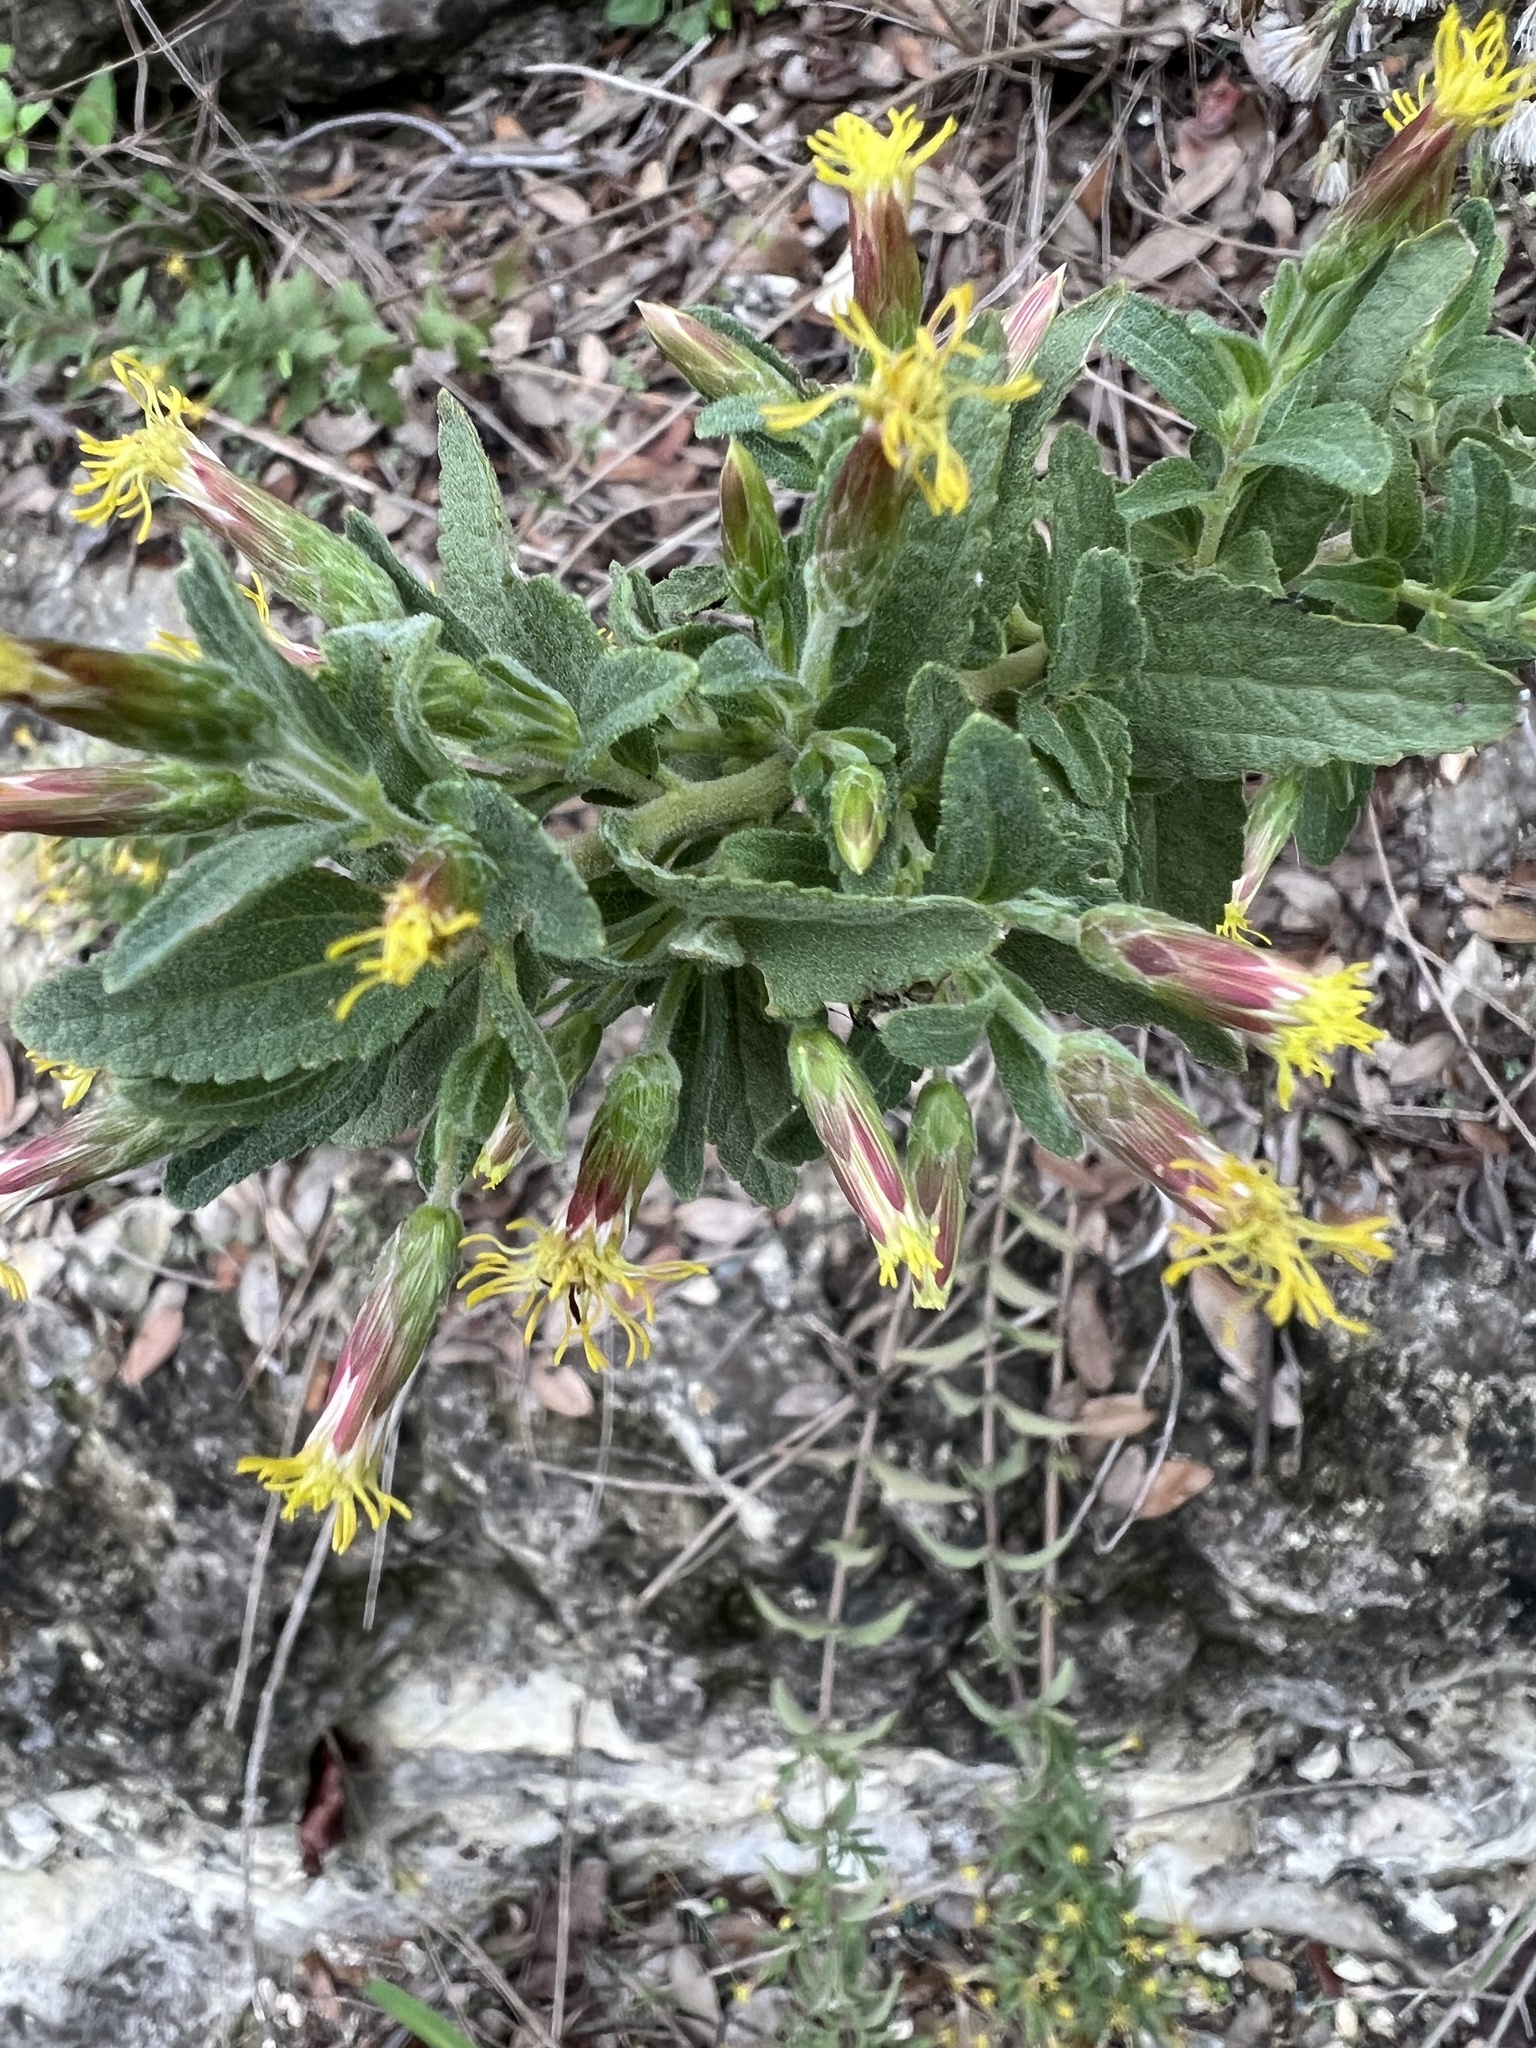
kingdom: Plantae
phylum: Tracheophyta
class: Magnoliopsida
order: Asterales
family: Asteraceae
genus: Brickellia
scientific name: Brickellia cylindracea
